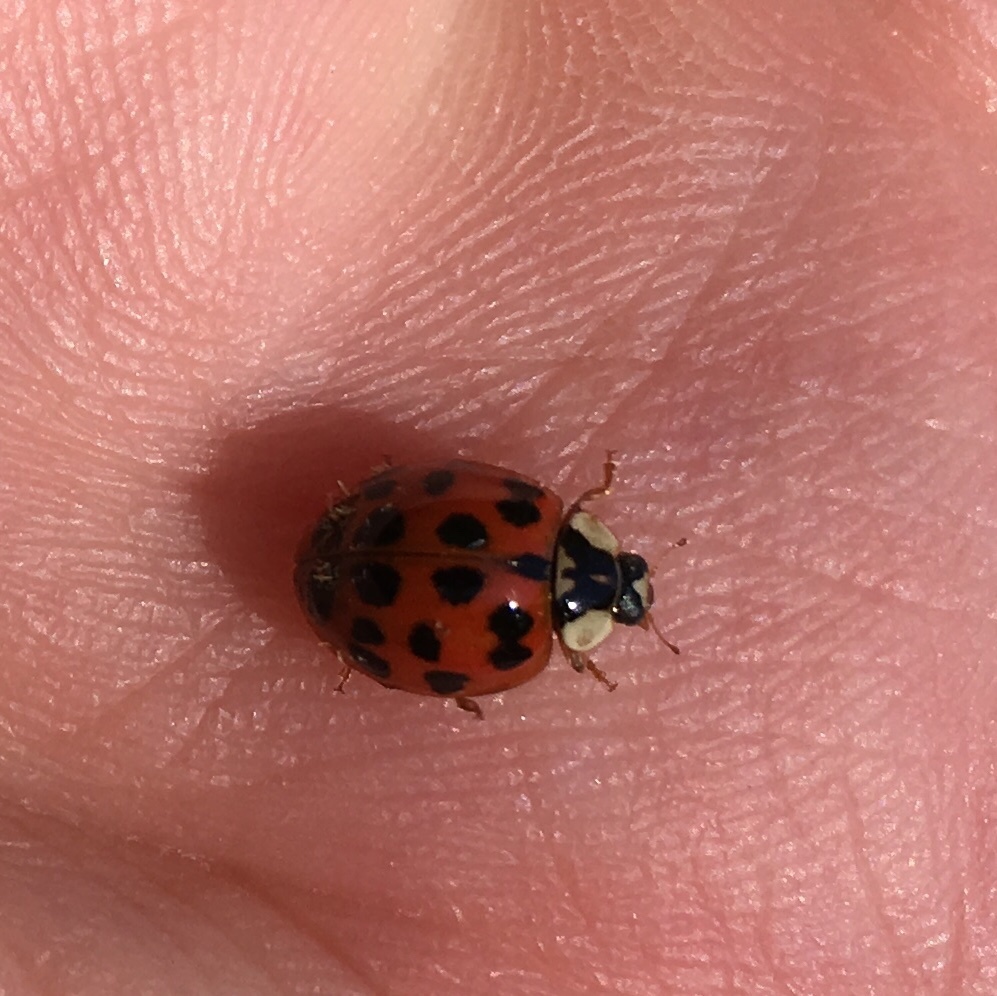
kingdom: Animalia
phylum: Arthropoda
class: Insecta
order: Coleoptera
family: Coccinellidae
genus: Harmonia
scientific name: Harmonia axyridis
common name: Harlequin ladybird
